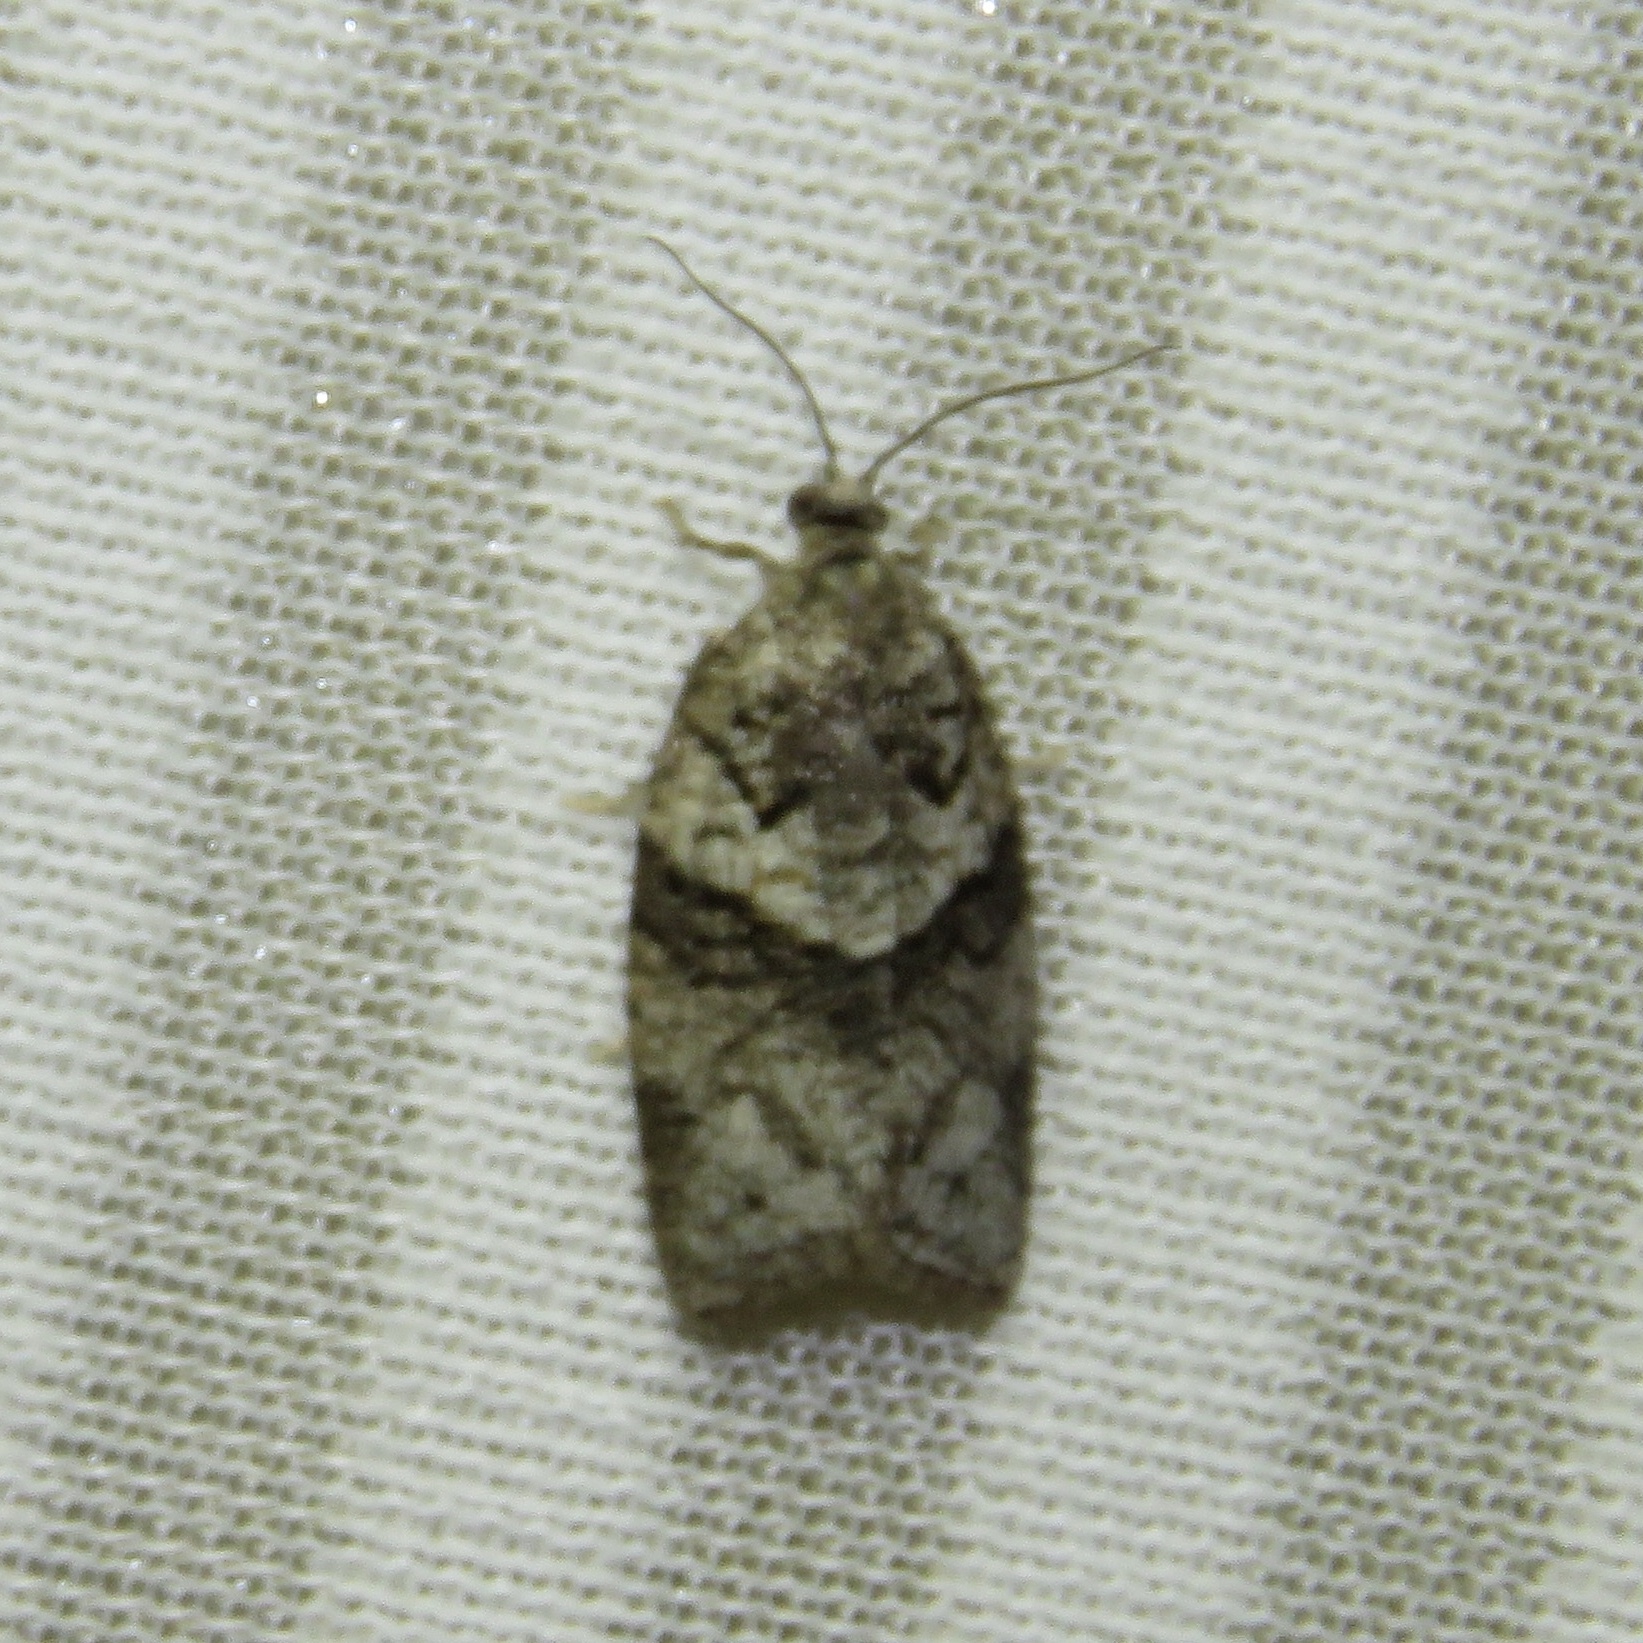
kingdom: Animalia
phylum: Arthropoda
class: Insecta
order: Lepidoptera
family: Tortricidae
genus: Syndemis
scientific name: Syndemis afflictana
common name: Gray leafroller moth
